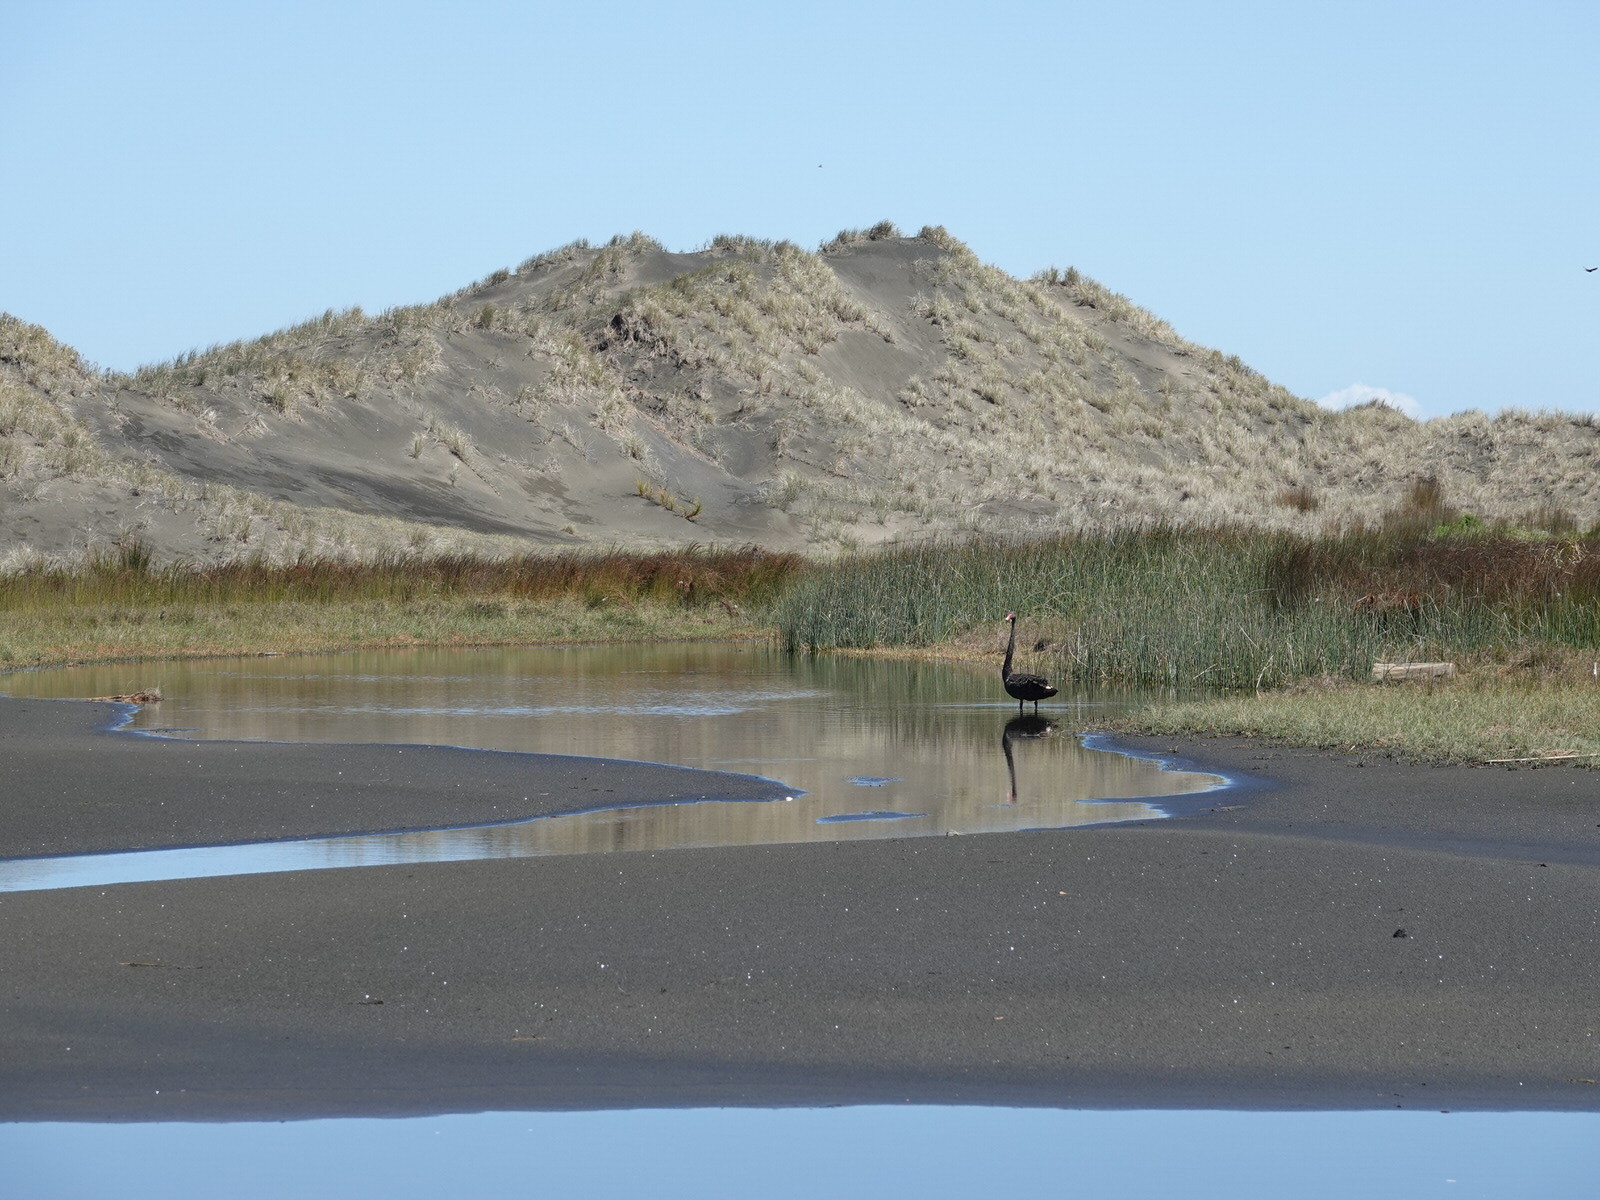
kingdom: Animalia
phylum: Chordata
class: Aves
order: Anseriformes
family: Anatidae
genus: Cygnus
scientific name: Cygnus atratus
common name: Black swan
